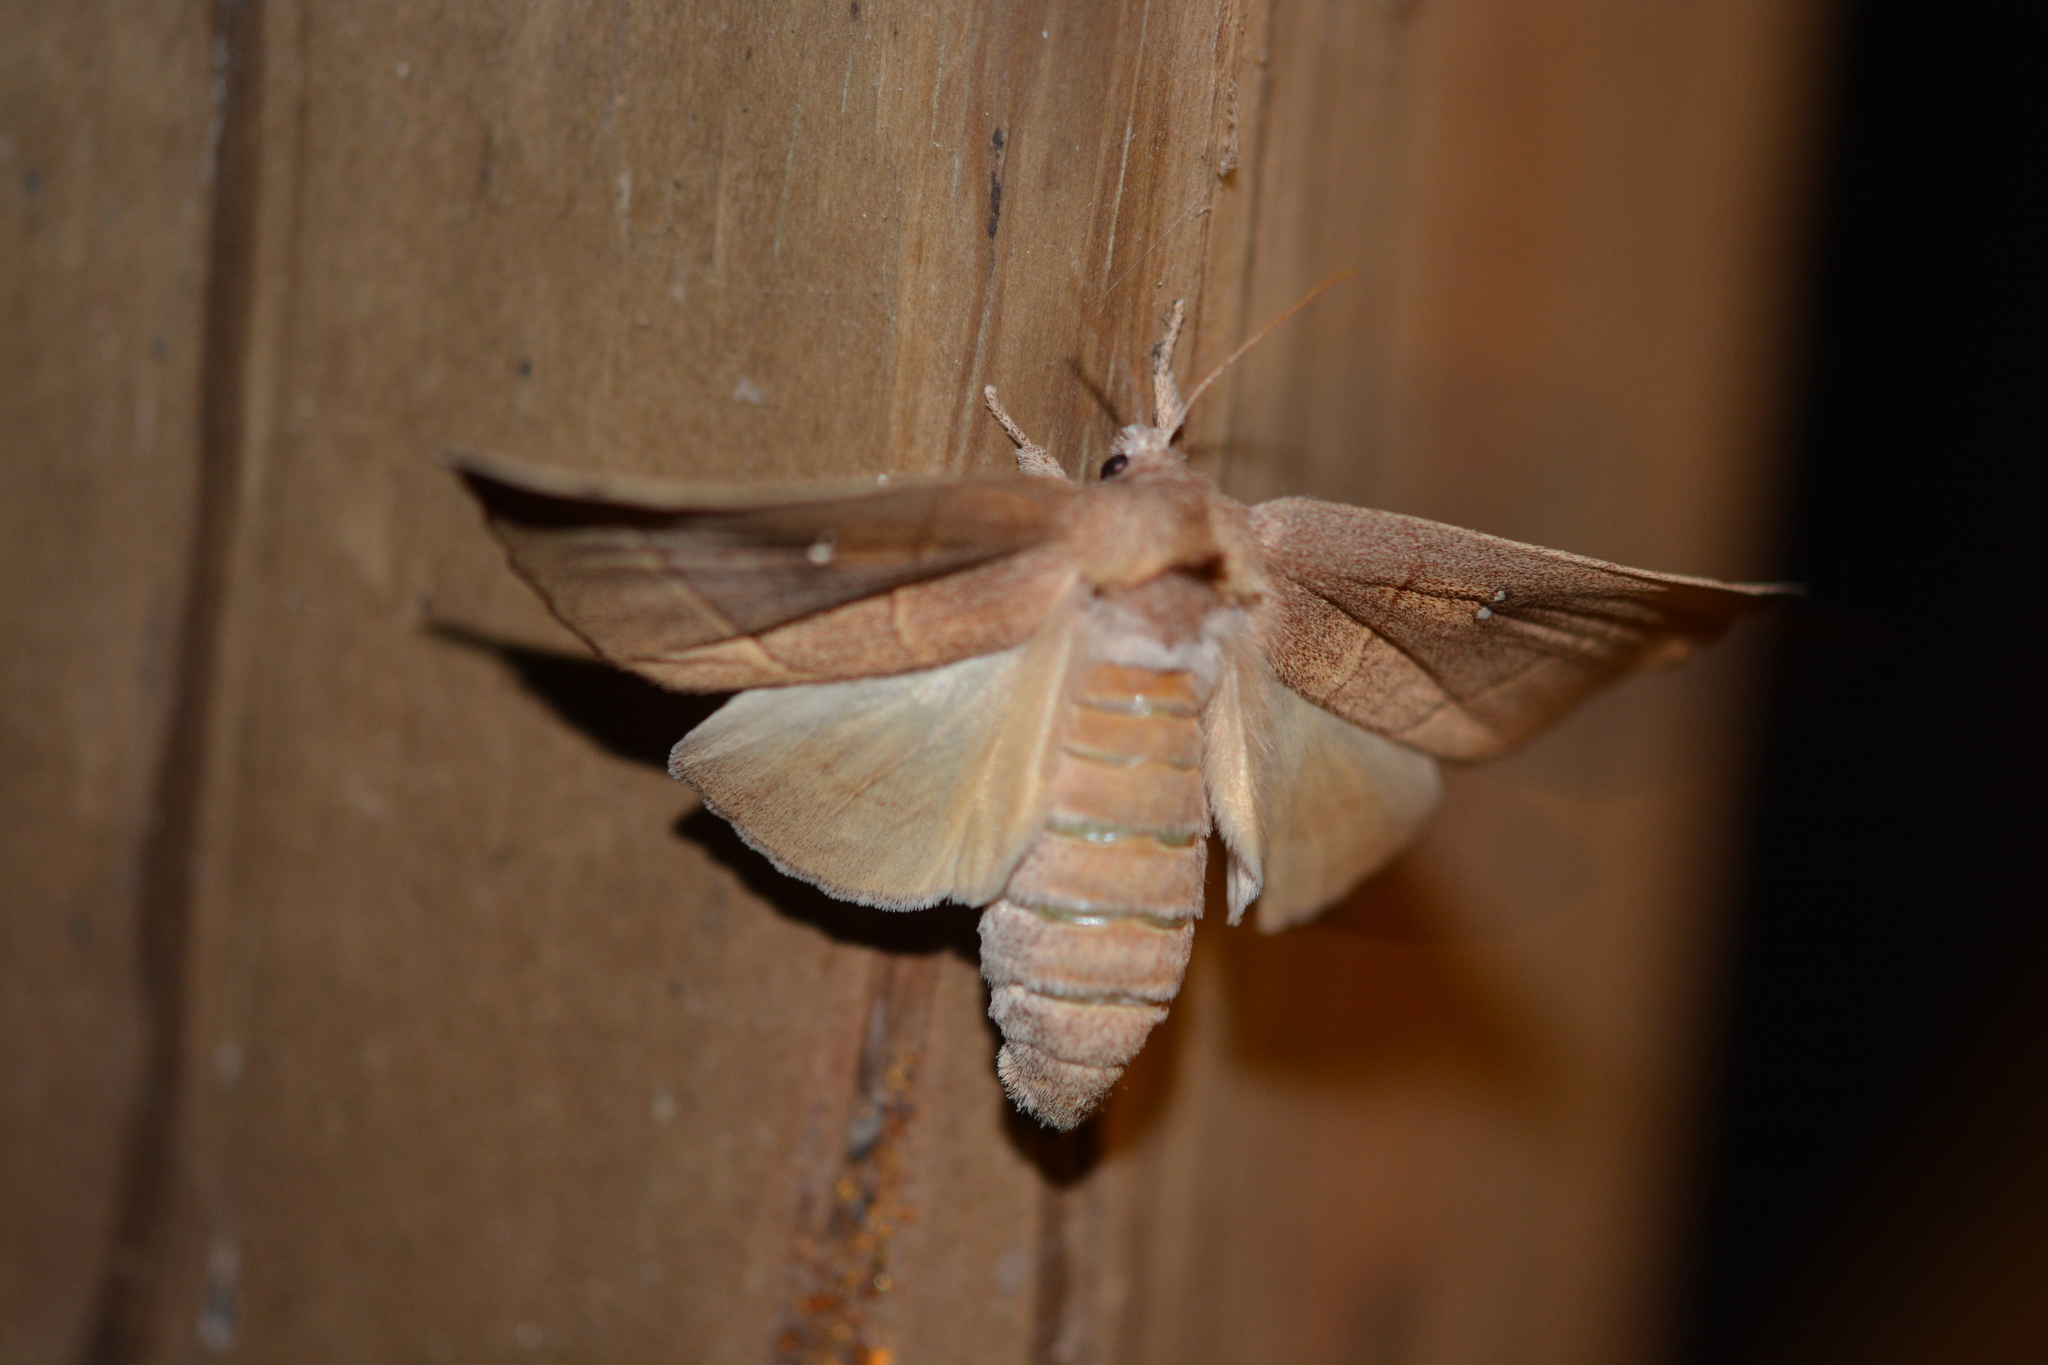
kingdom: Animalia
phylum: Arthropoda
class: Insecta
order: Lepidoptera
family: Notodontidae
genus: Nadata
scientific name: Nadata gibbosa
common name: White-dotted prominent
